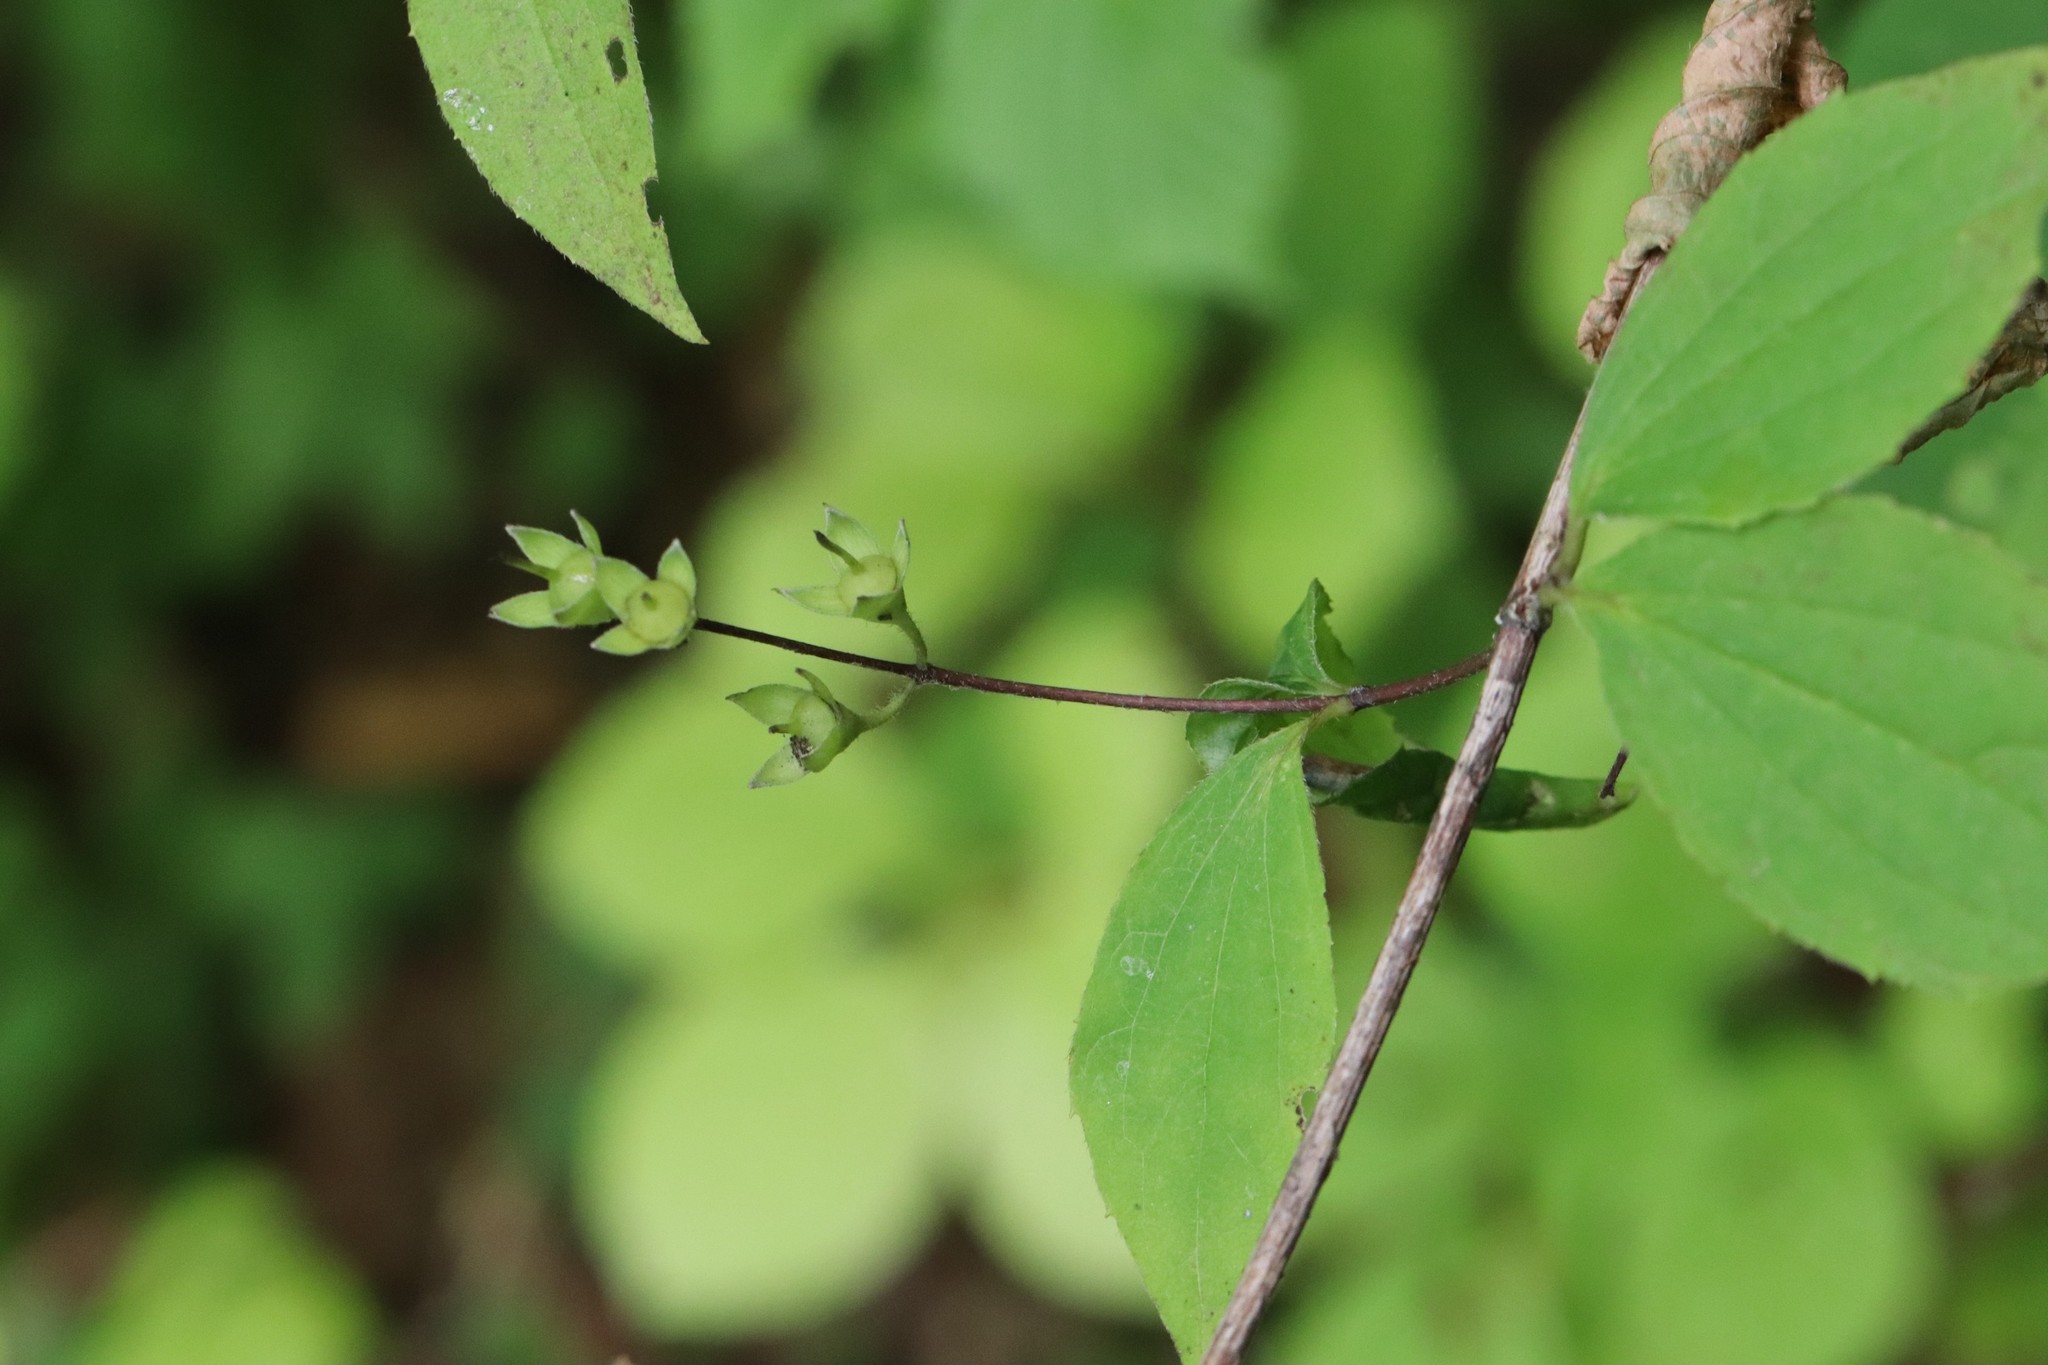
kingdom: Plantae
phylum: Tracheophyta
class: Magnoliopsida
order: Cornales
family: Hydrangeaceae
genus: Philadelphus
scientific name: Philadelphus tenuifolius
